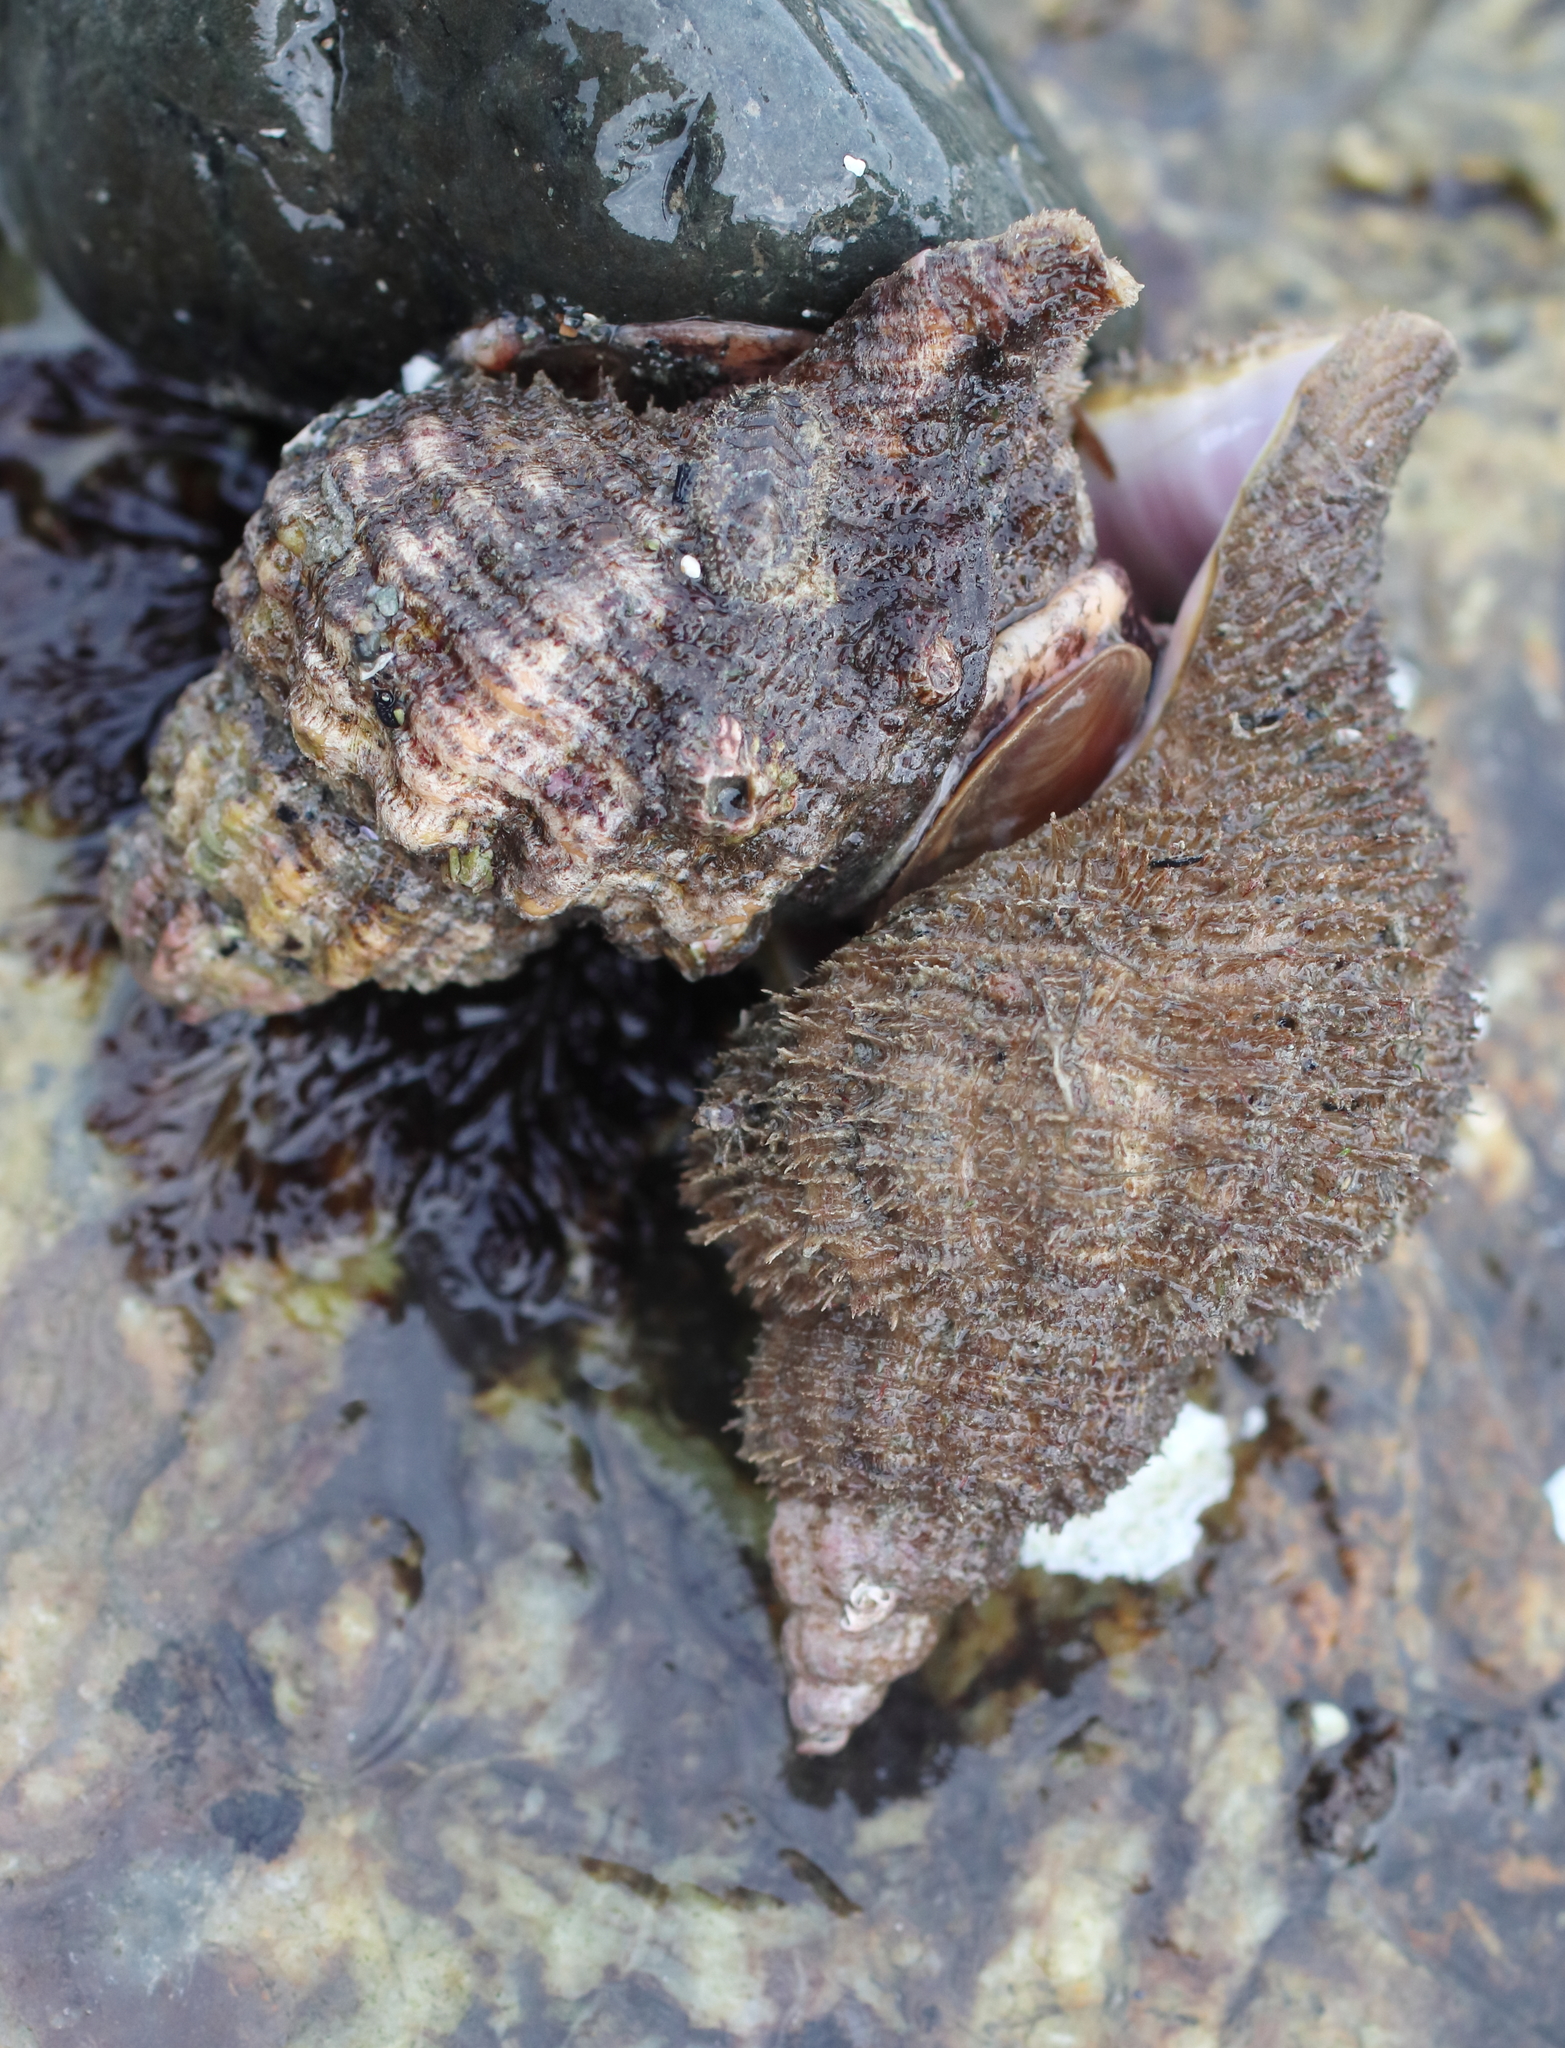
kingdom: Animalia
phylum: Mollusca
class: Gastropoda
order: Littorinimorpha
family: Cymatiidae
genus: Fusitriton
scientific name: Fusitriton oregonensis
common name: Oregon hairy triton
